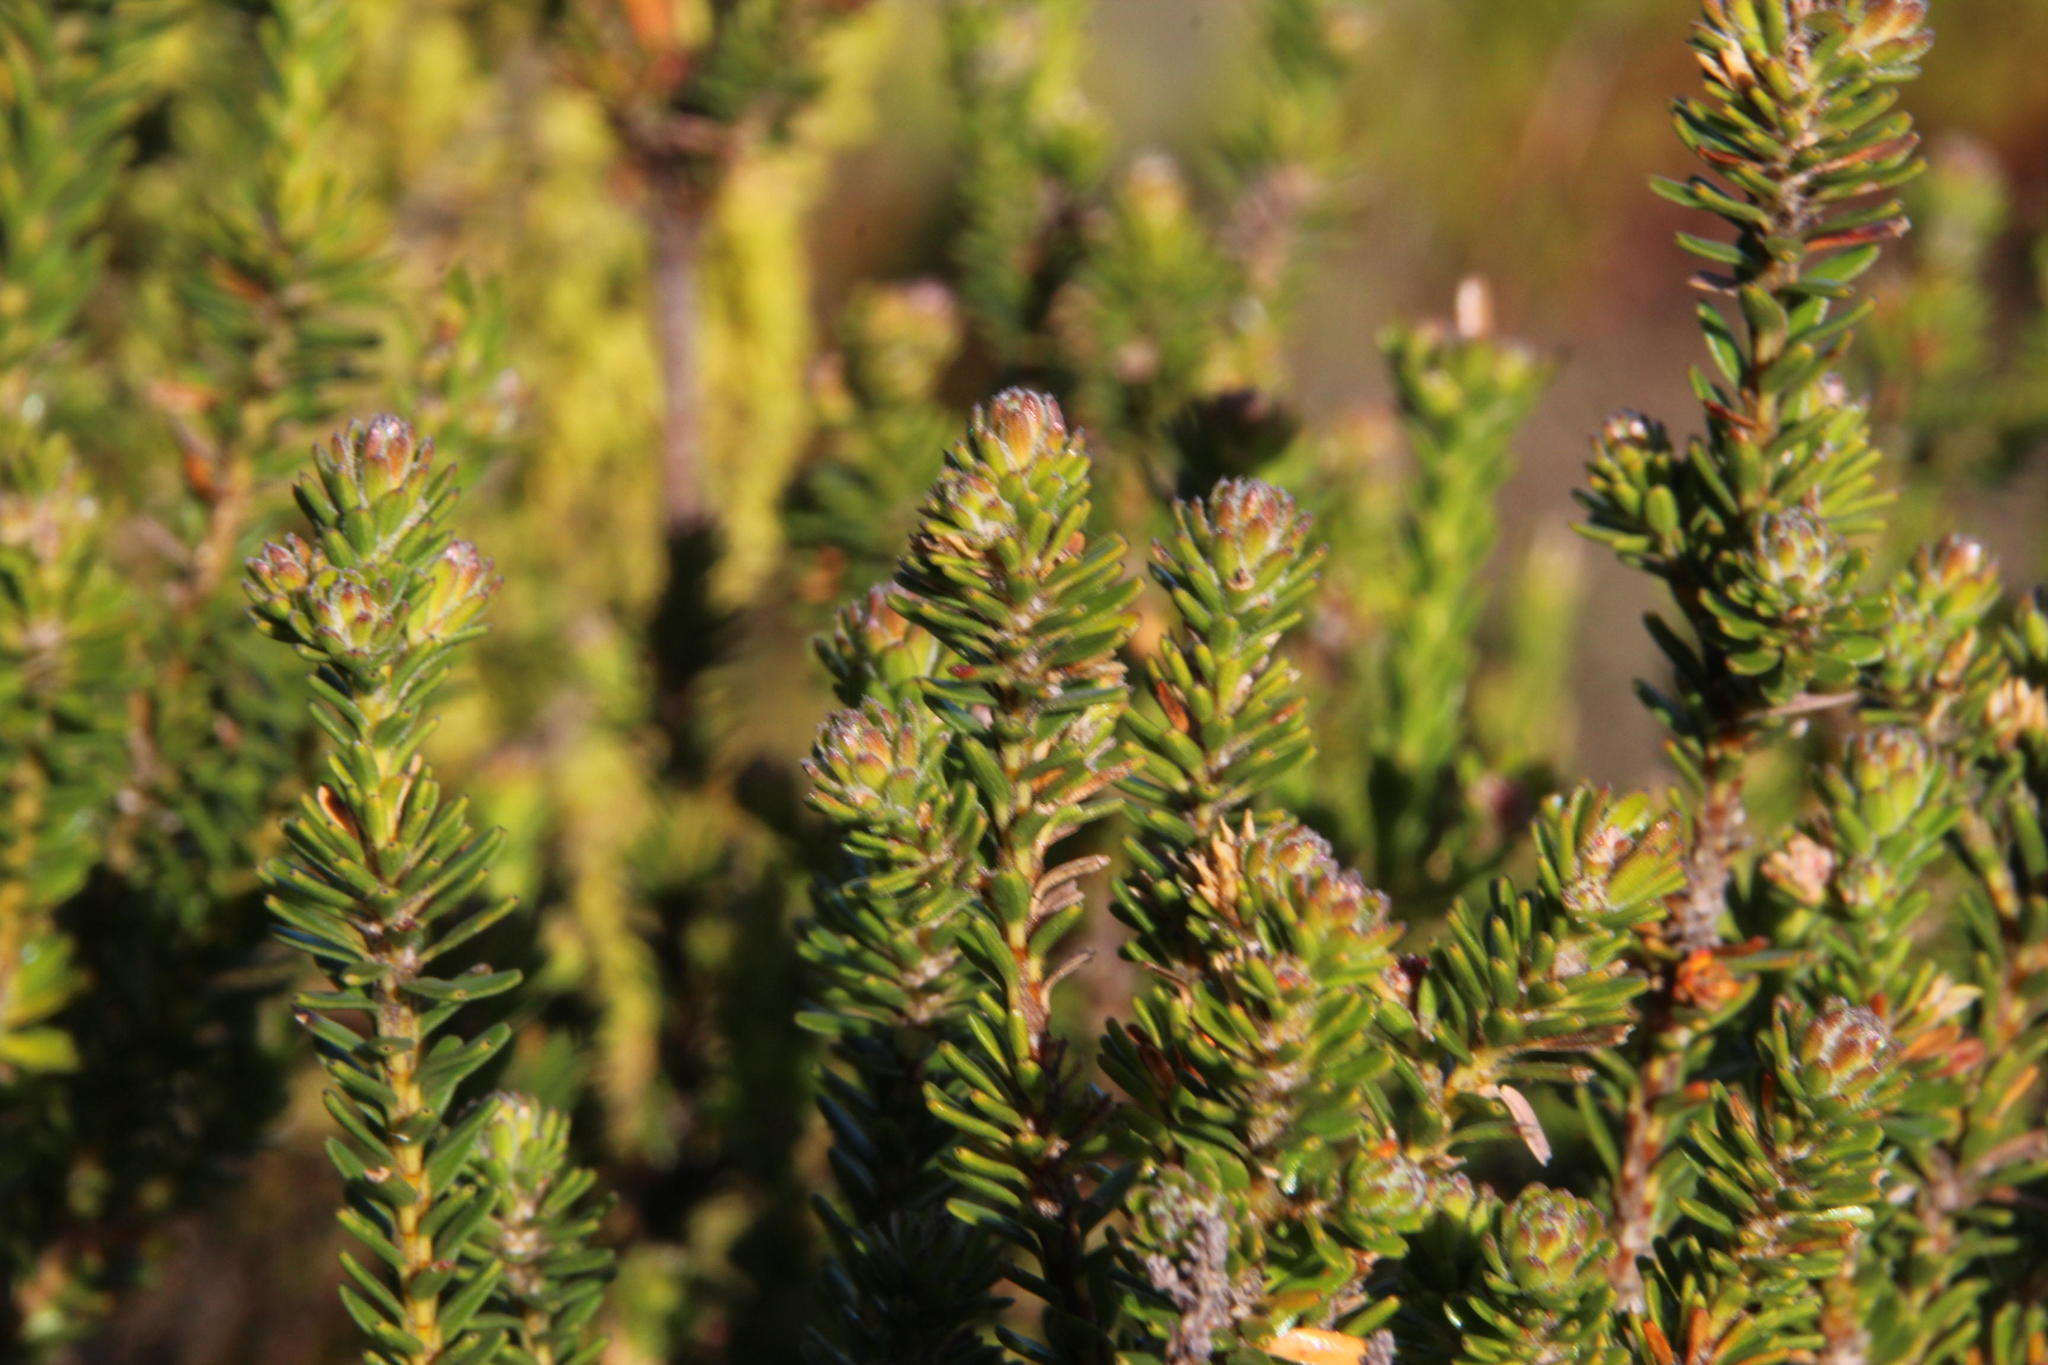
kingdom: Plantae
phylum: Tracheophyta
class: Magnoliopsida
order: Bruniales
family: Bruniaceae
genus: Linconia
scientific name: Linconia cuspidata
